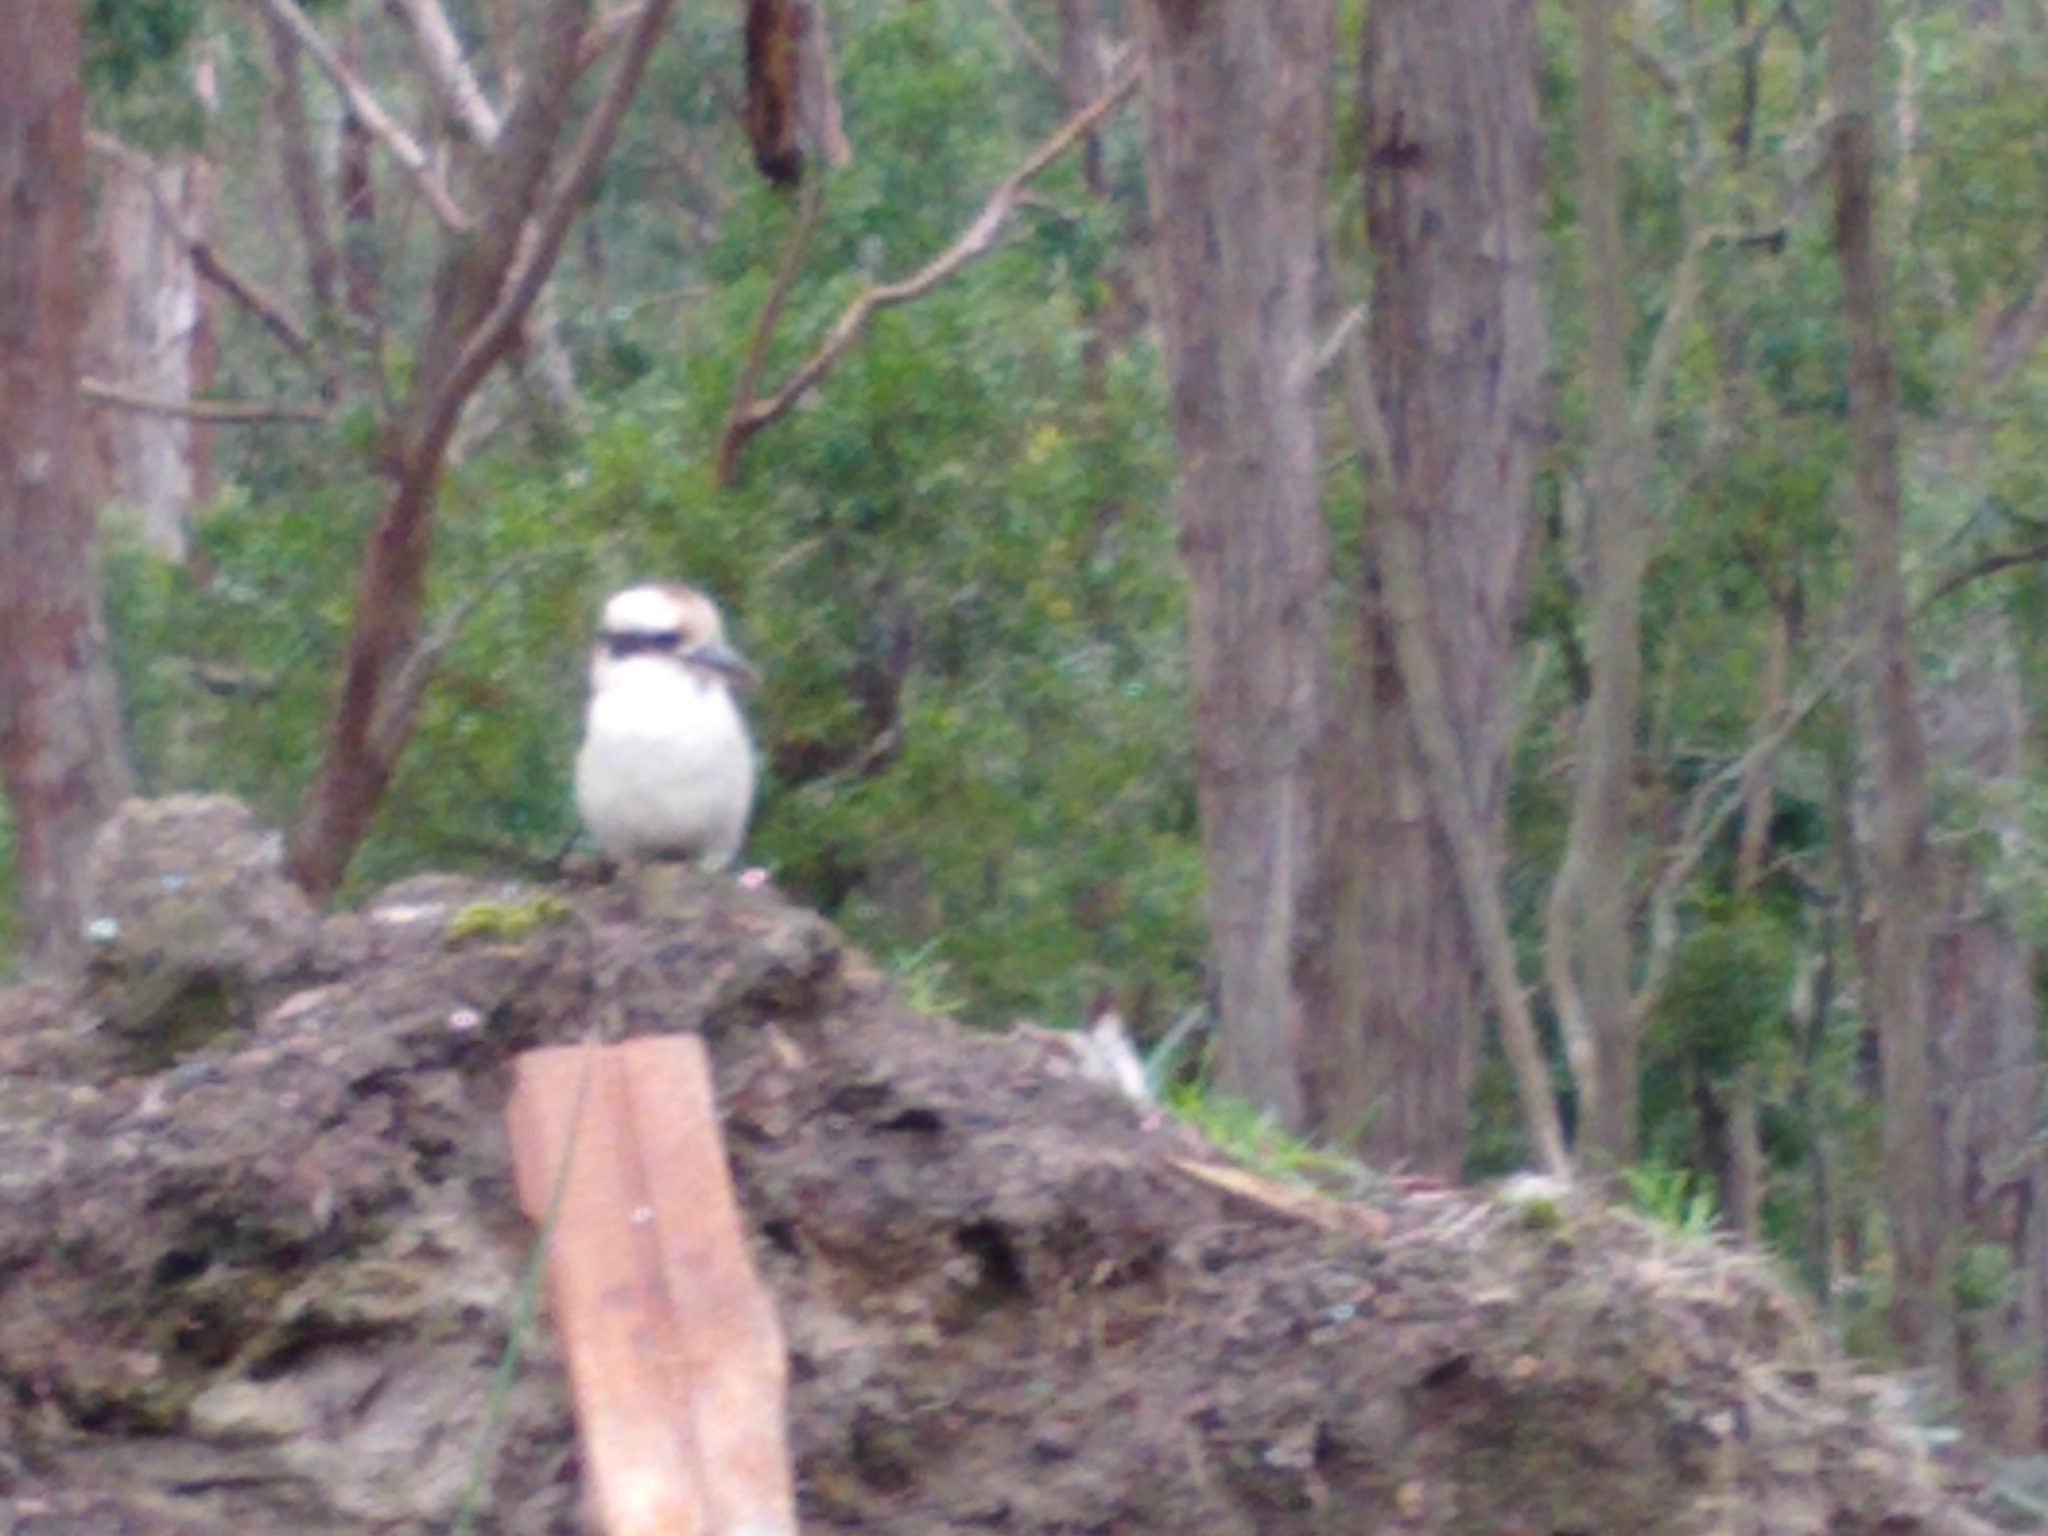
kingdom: Animalia
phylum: Chordata
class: Aves
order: Coraciiformes
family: Alcedinidae
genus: Dacelo
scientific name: Dacelo novaeguineae
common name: Laughing kookaburra
